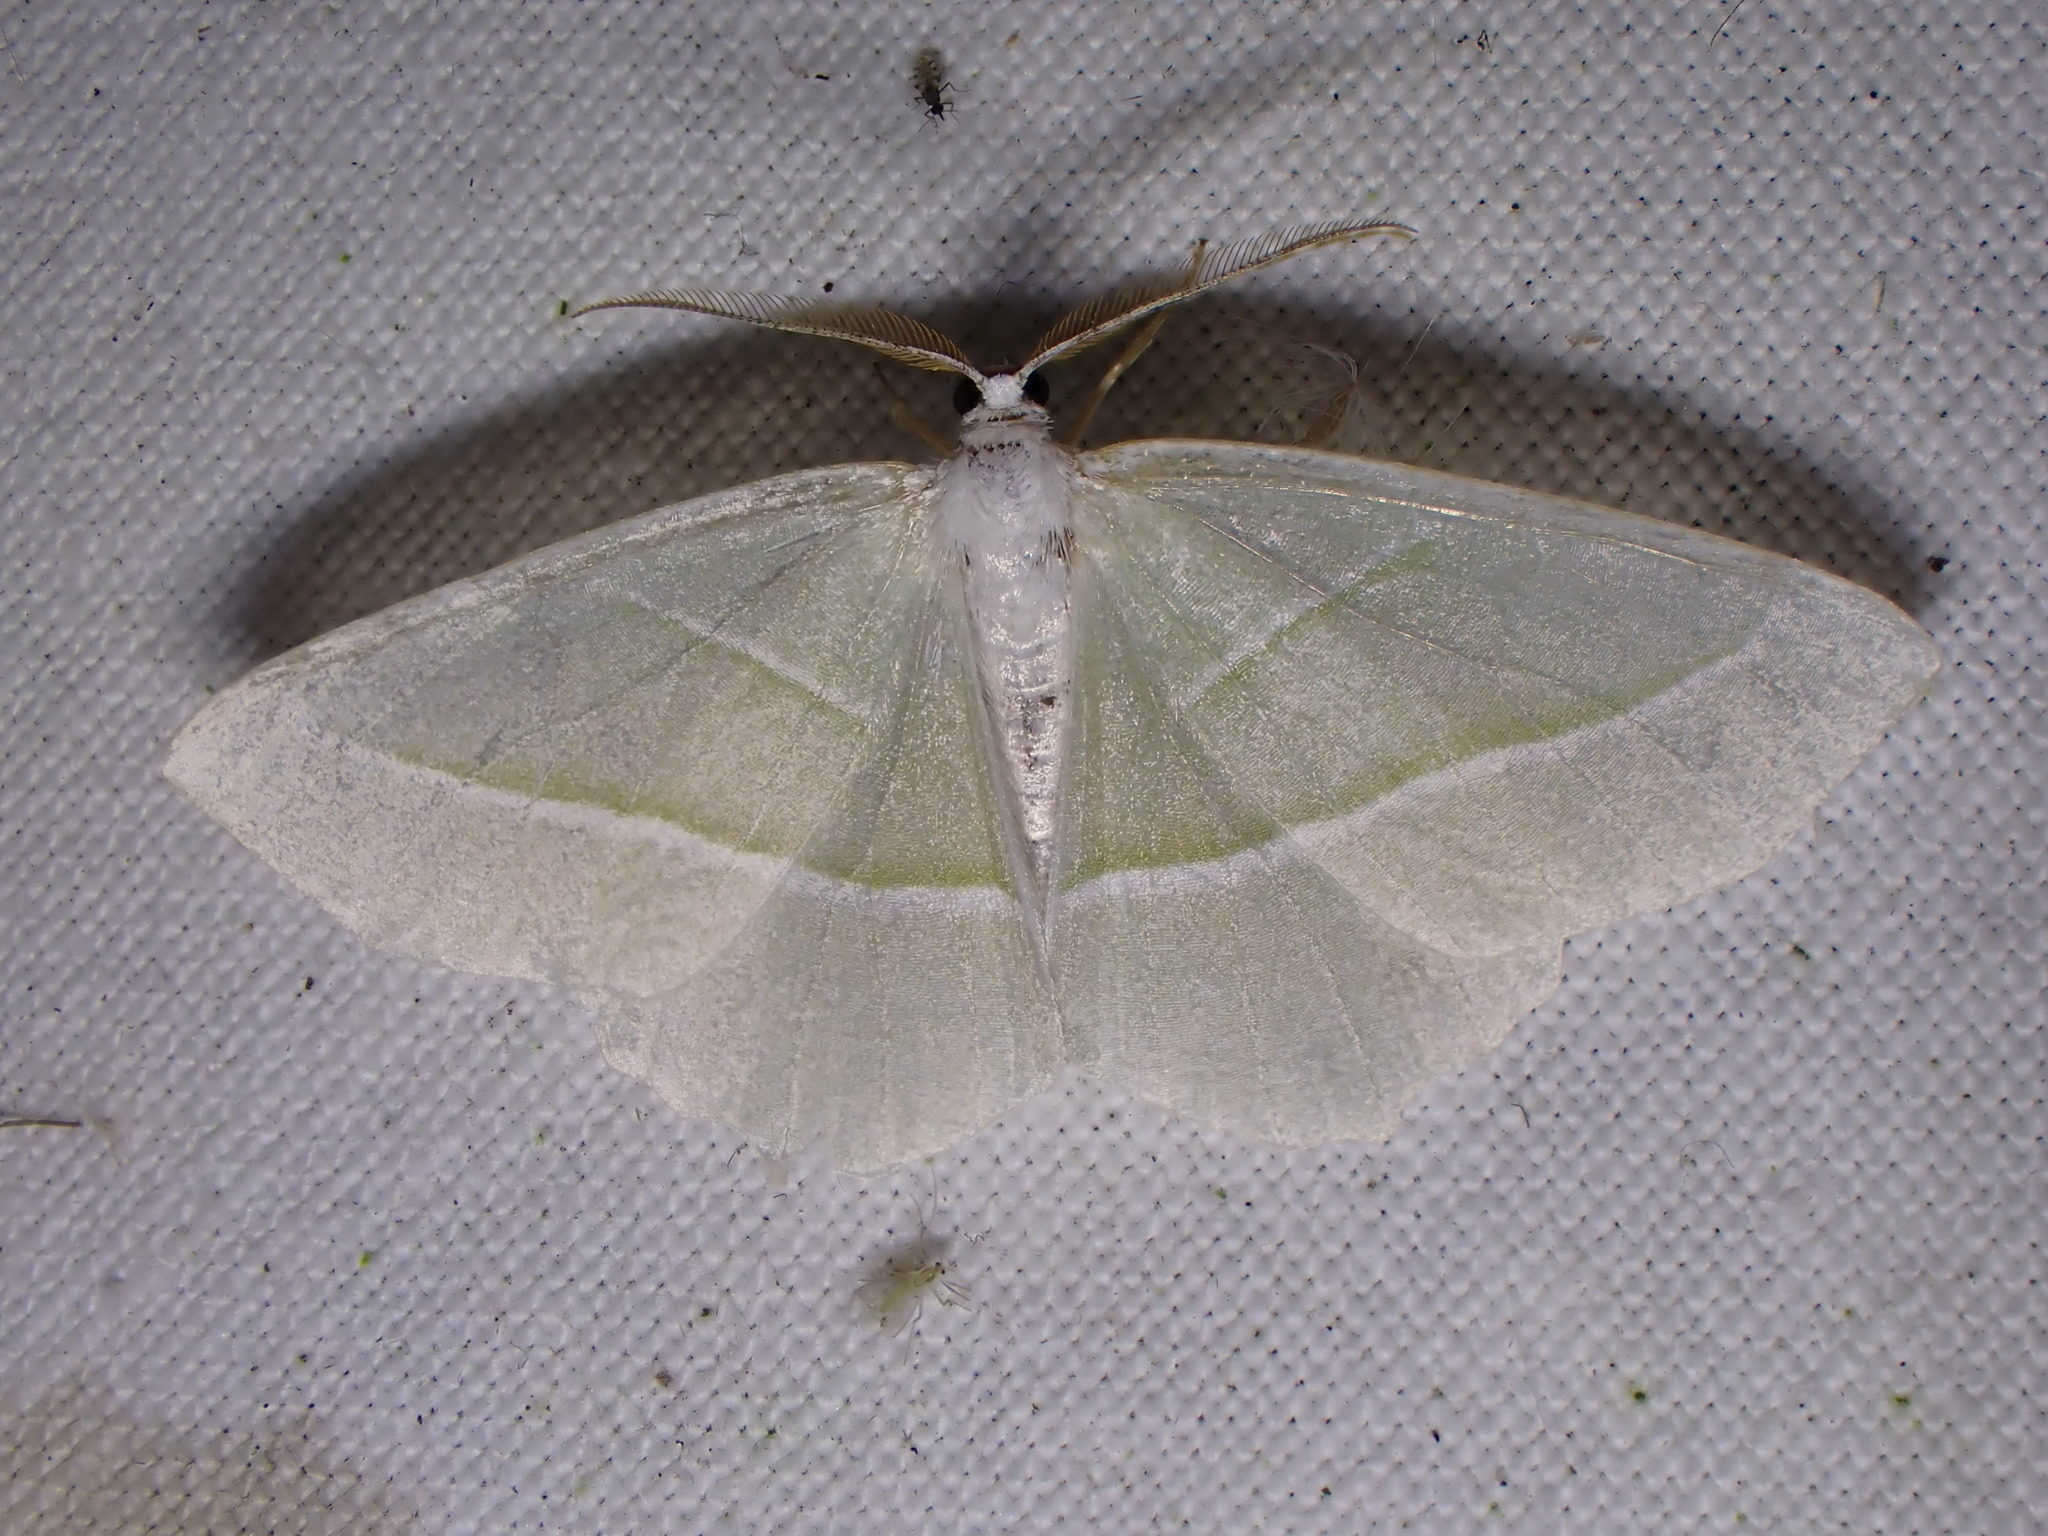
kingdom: Animalia
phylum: Arthropoda
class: Insecta
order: Lepidoptera
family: Geometridae
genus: Campaea
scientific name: Campaea margaritaria
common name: Light emerald
